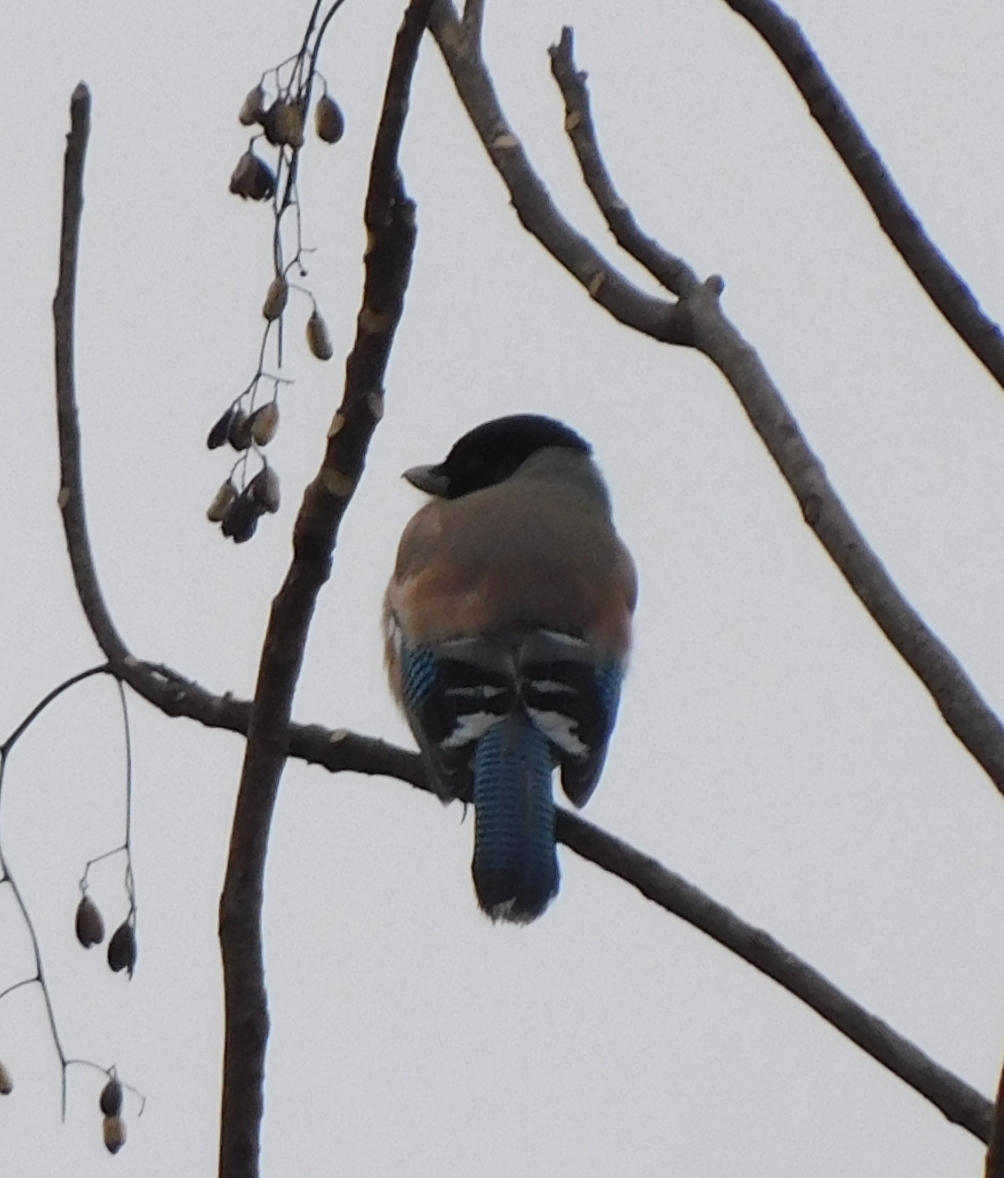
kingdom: Animalia
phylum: Chordata
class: Aves
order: Passeriformes
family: Corvidae
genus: Garrulus
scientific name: Garrulus lanceolatus
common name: Black-headed jay
